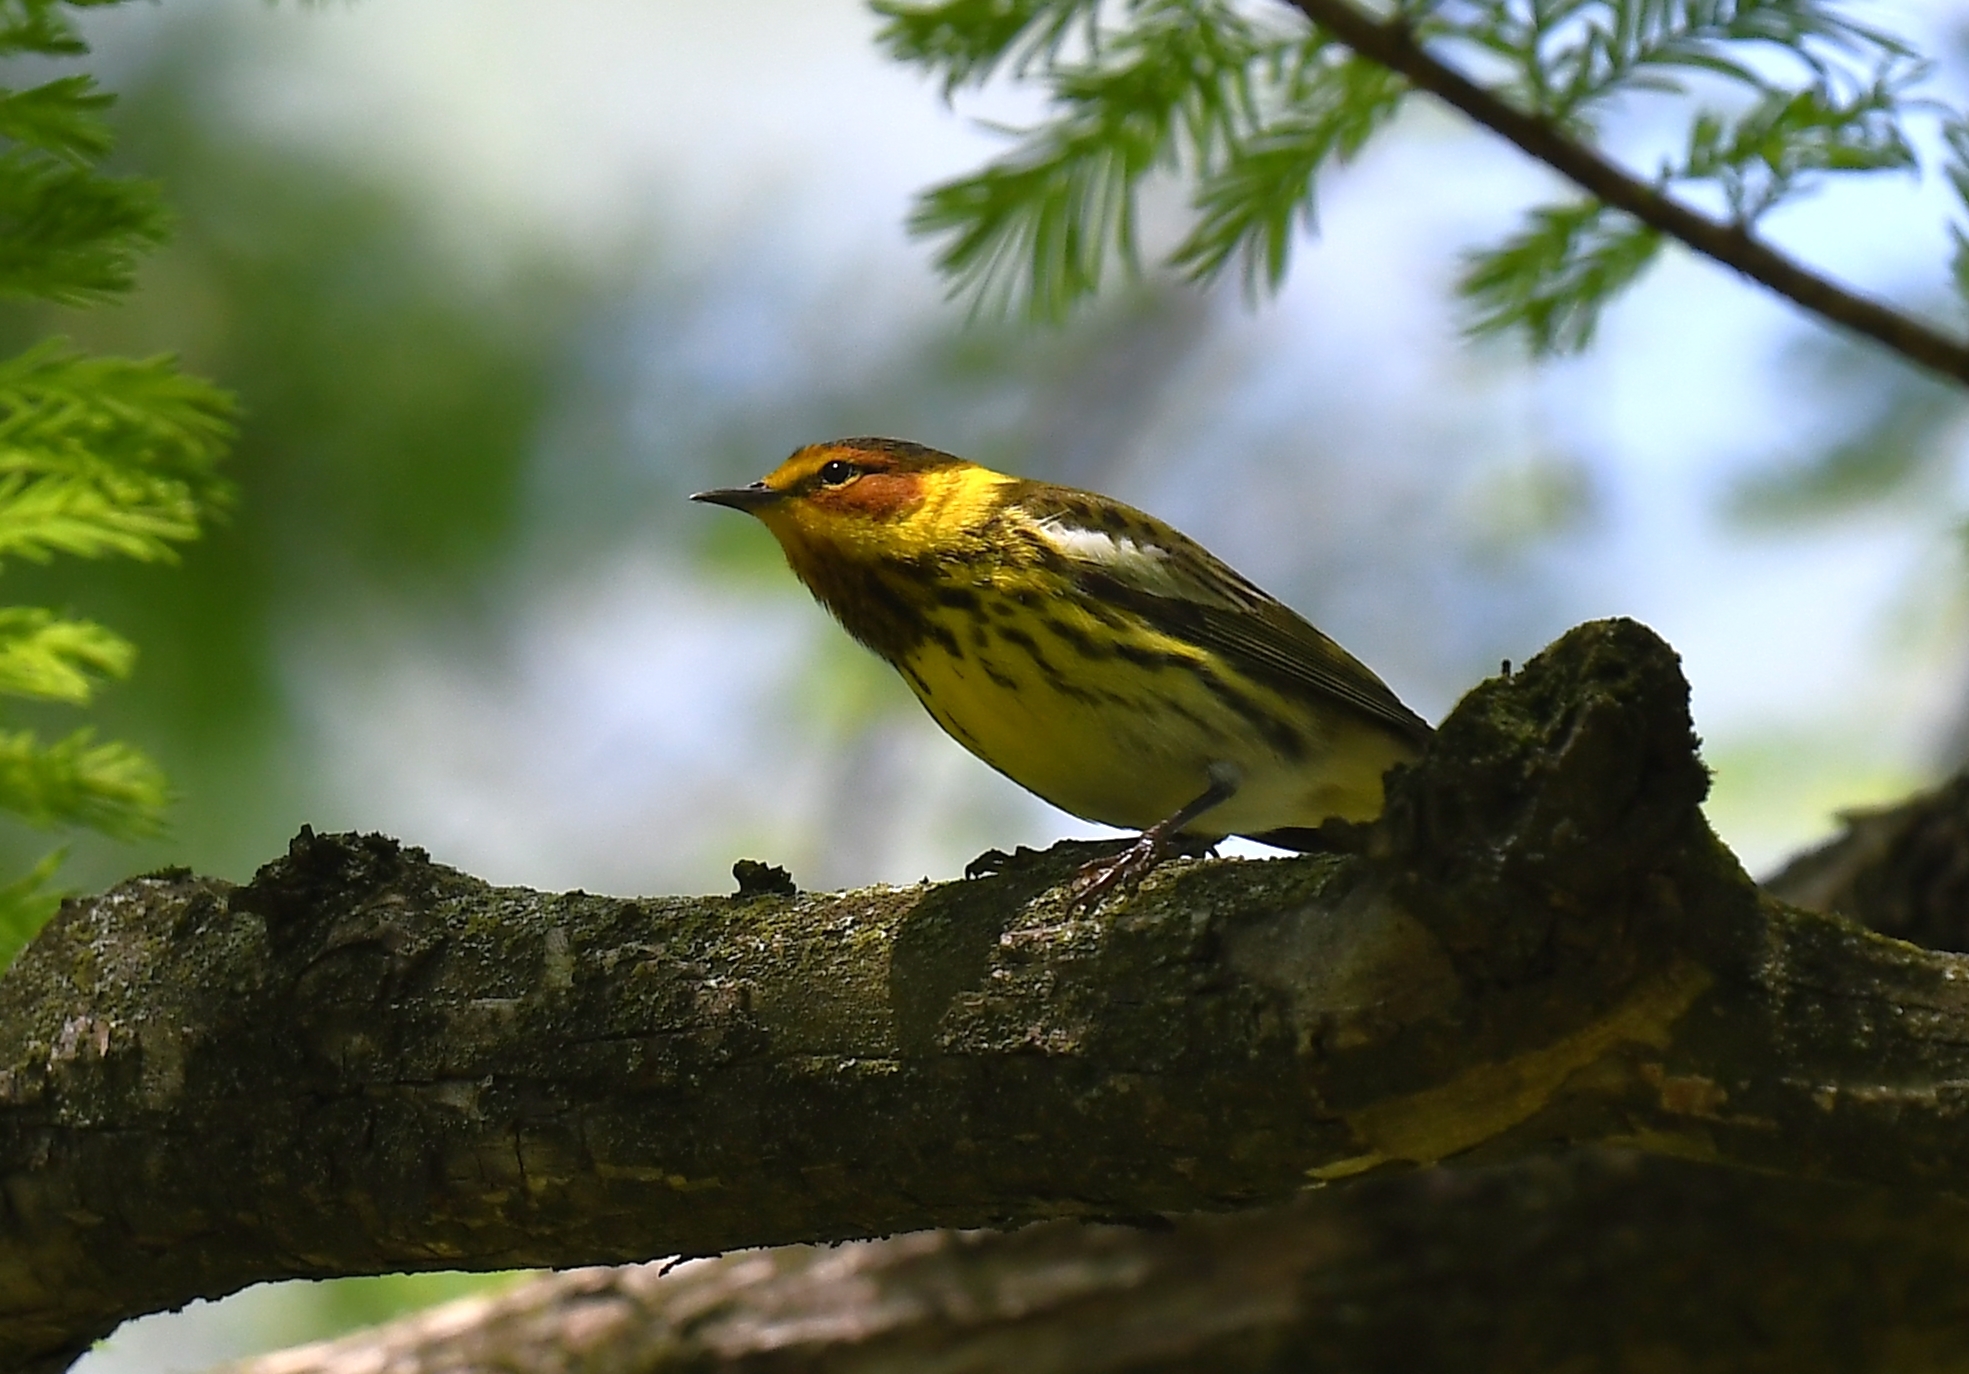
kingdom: Animalia
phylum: Chordata
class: Aves
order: Passeriformes
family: Parulidae
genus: Setophaga
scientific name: Setophaga tigrina
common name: Cape may warbler
